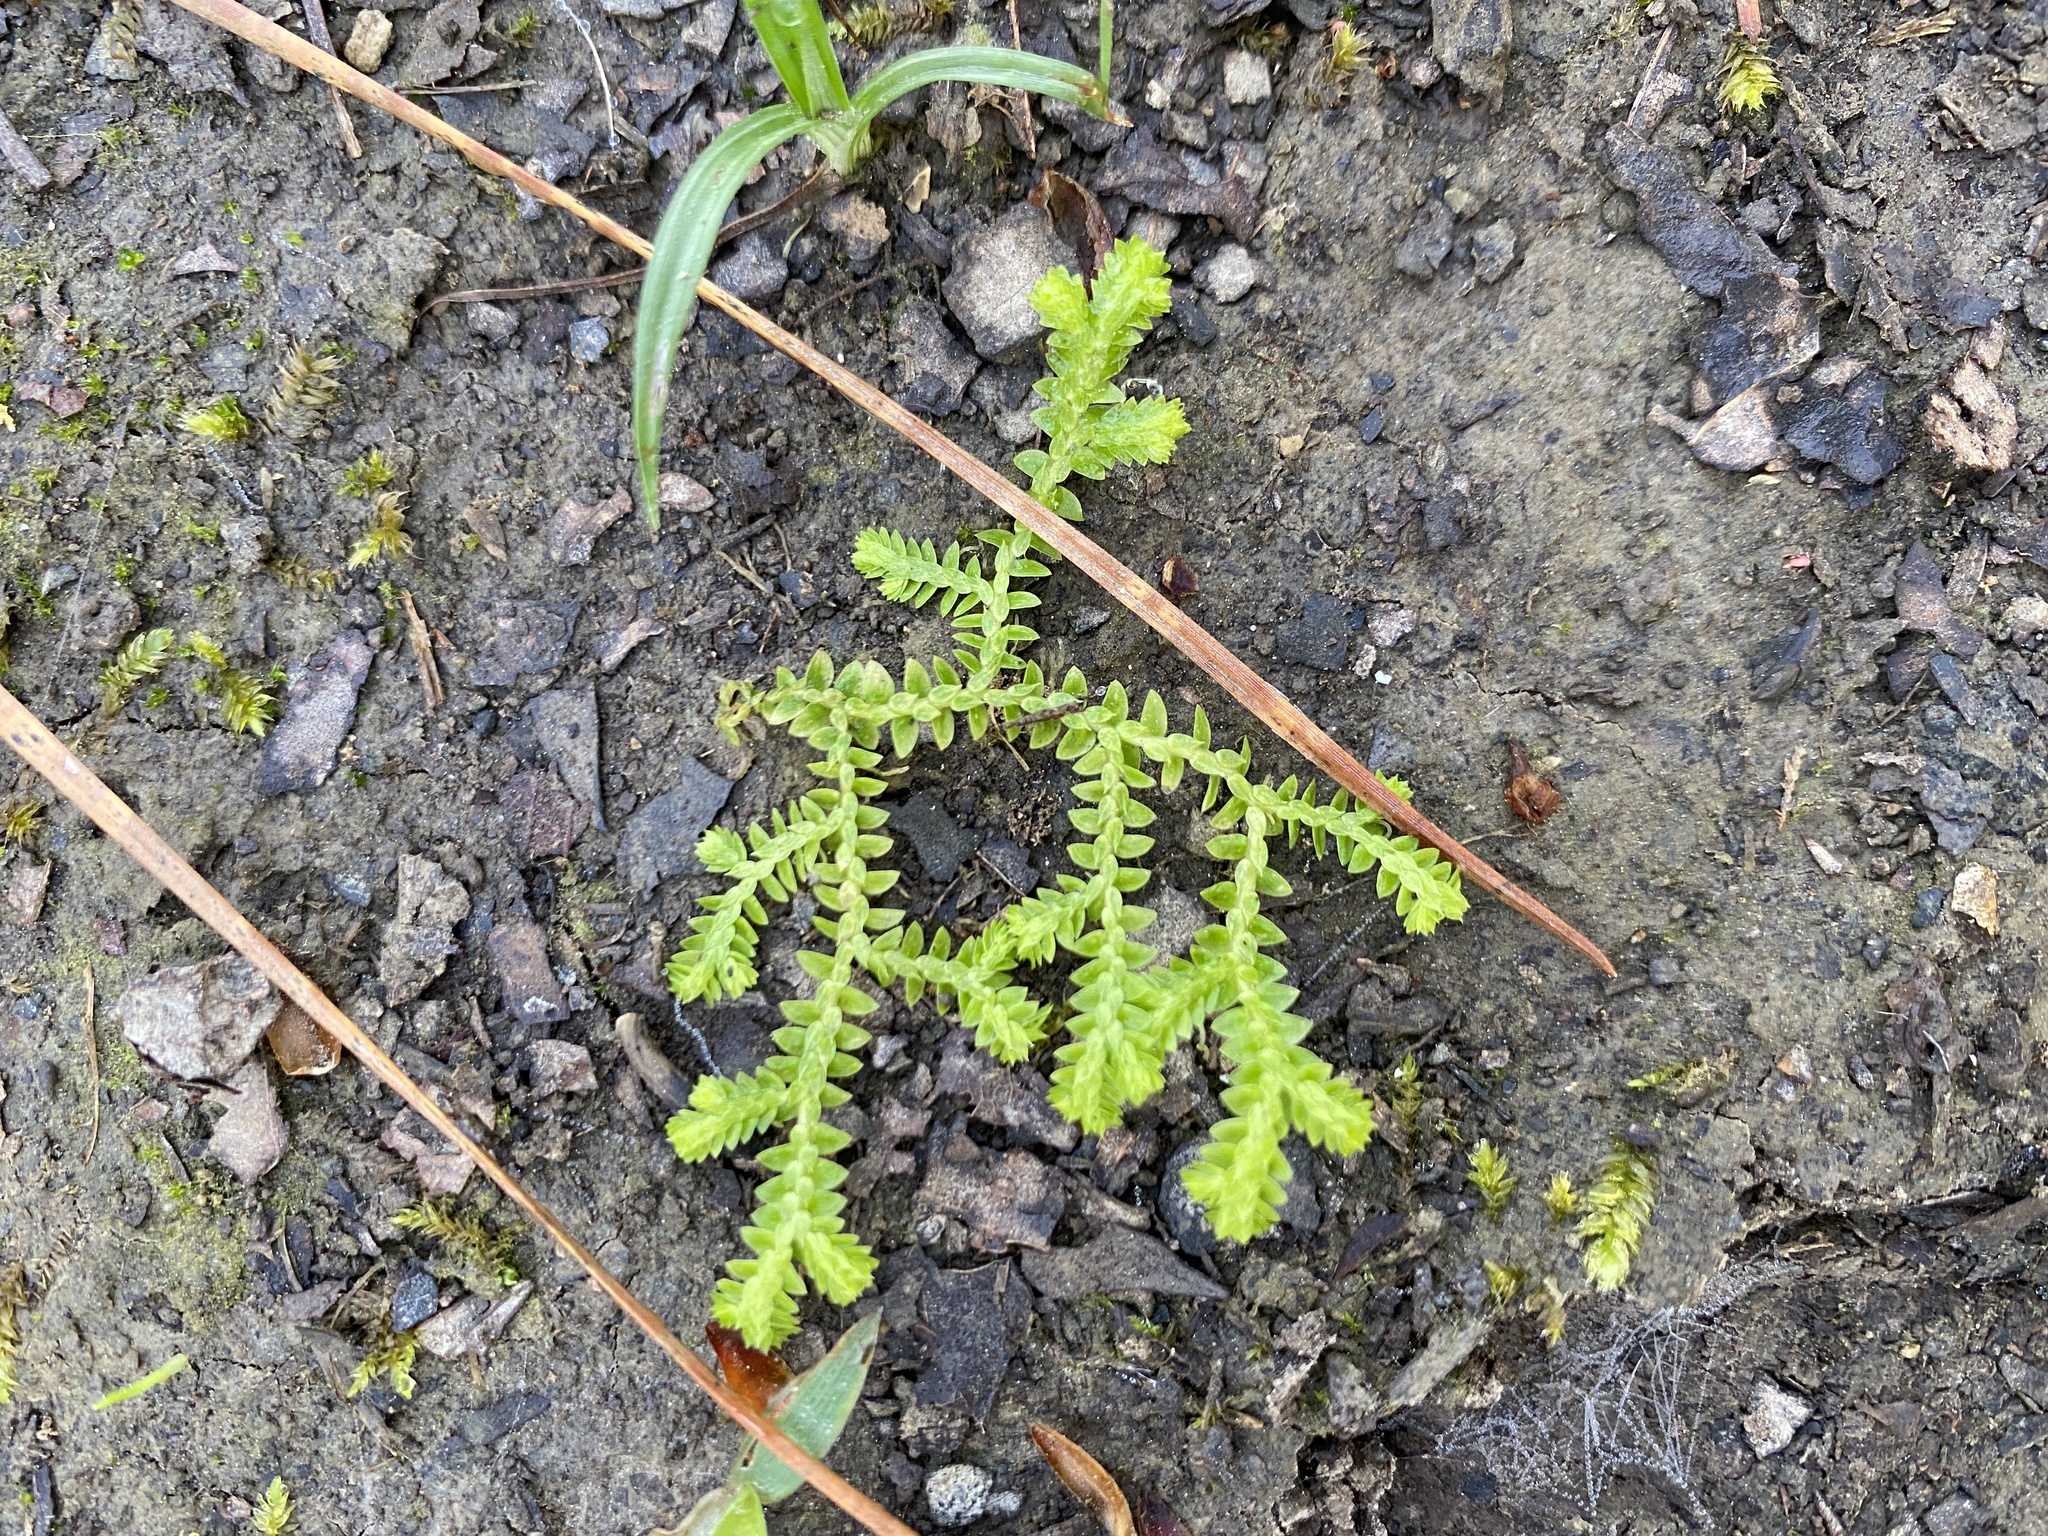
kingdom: Plantae
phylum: Tracheophyta
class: Lycopodiopsida
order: Selaginellales
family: Selaginellaceae
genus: Selaginella
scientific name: Selaginella apoda
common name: Creeping spikemoss
